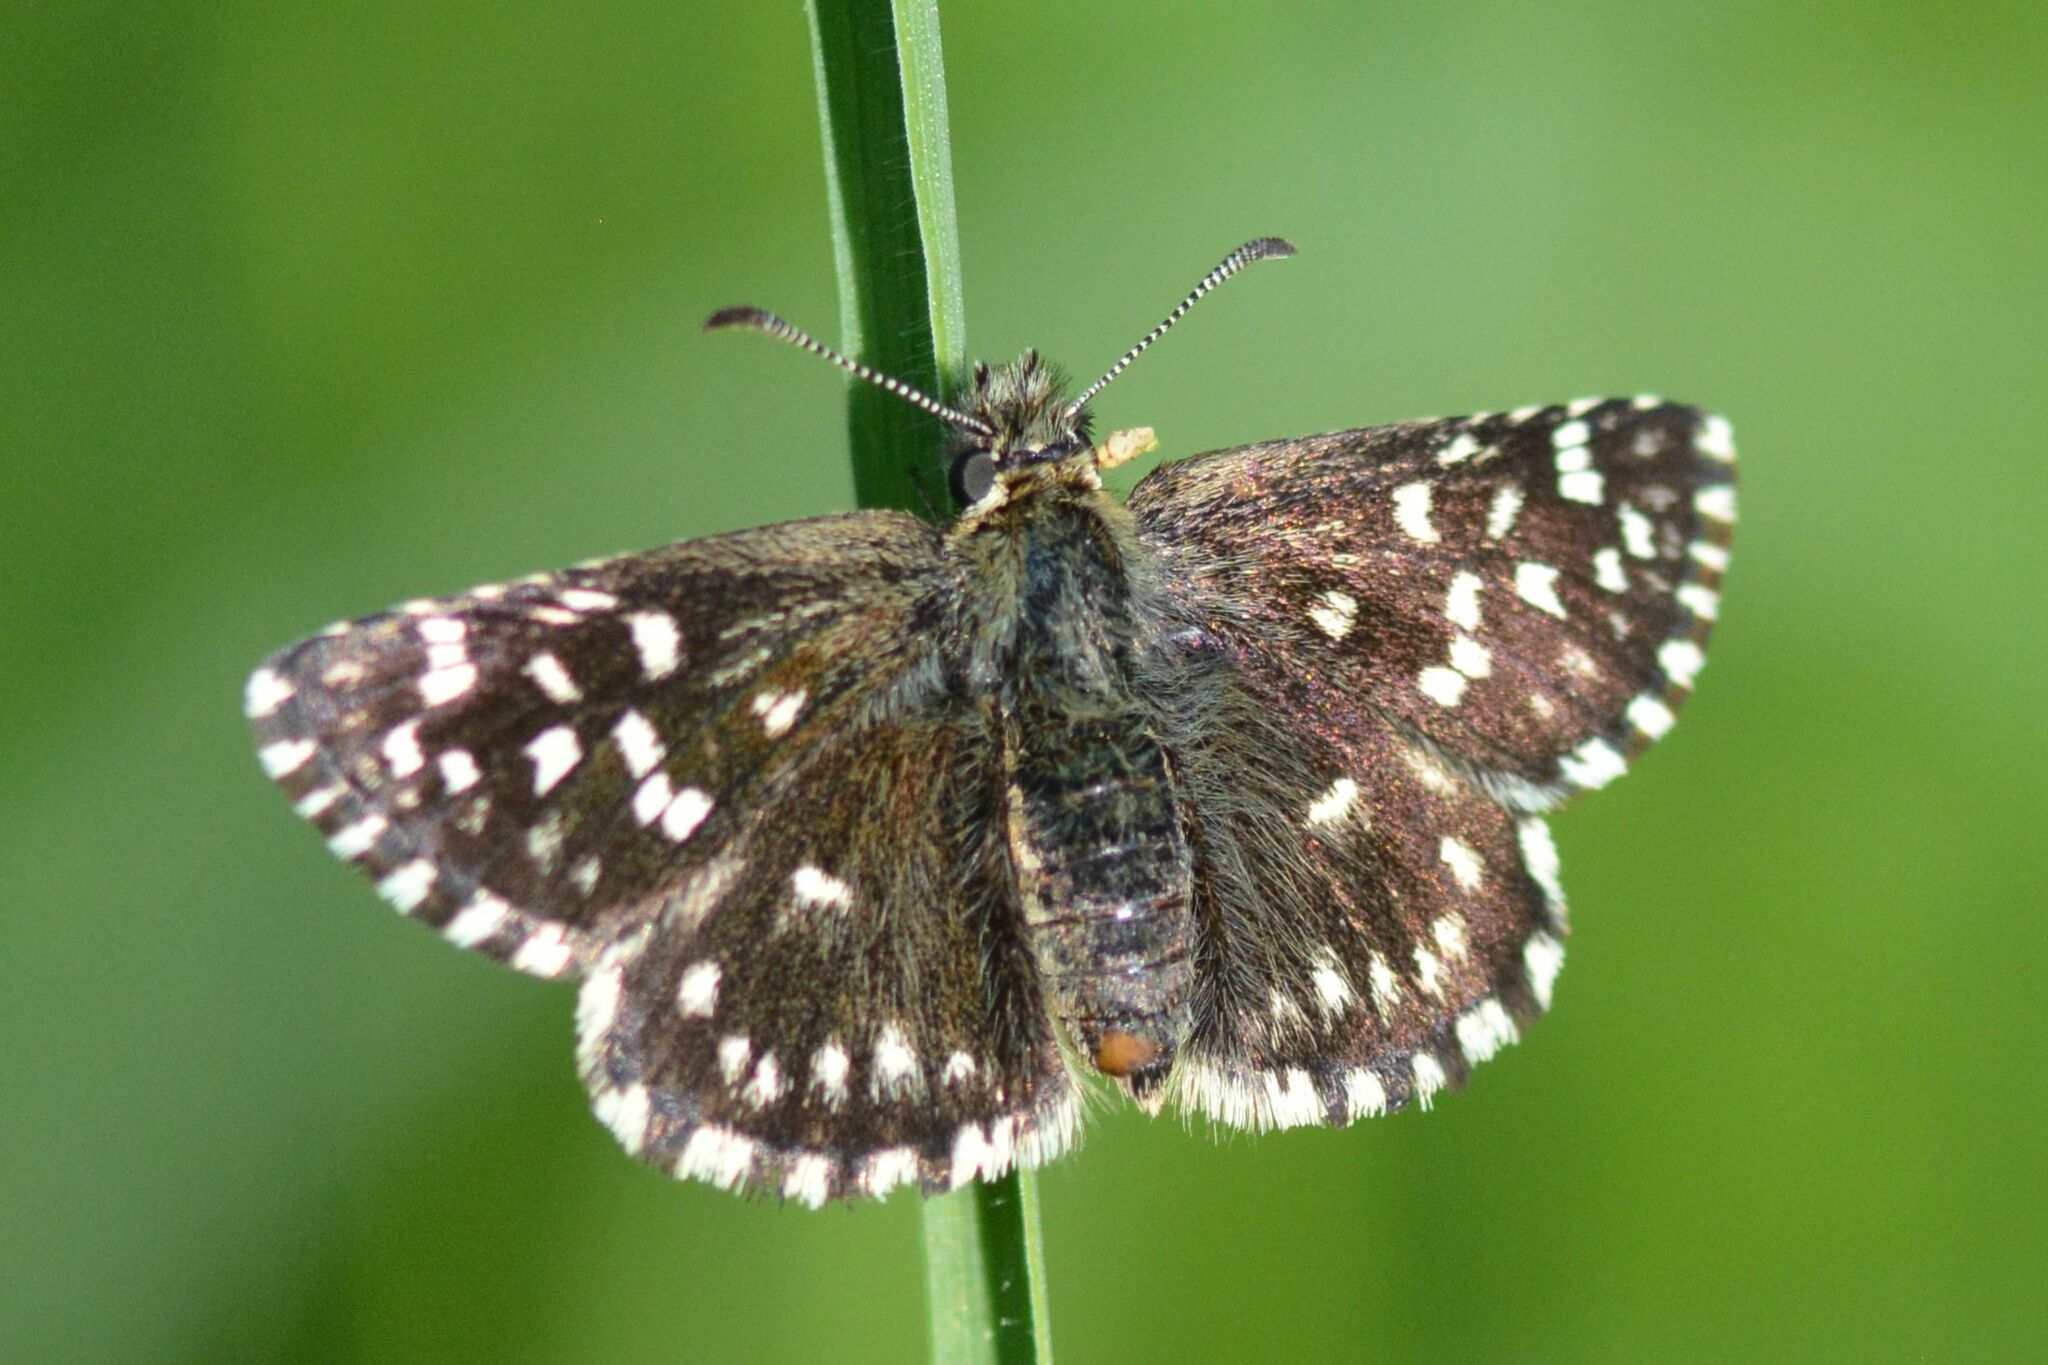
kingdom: Animalia
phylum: Arthropoda
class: Insecta
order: Lepidoptera
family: Hesperiidae
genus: Pyrgus
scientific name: Pyrgus malvae
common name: Grizzled skipper
